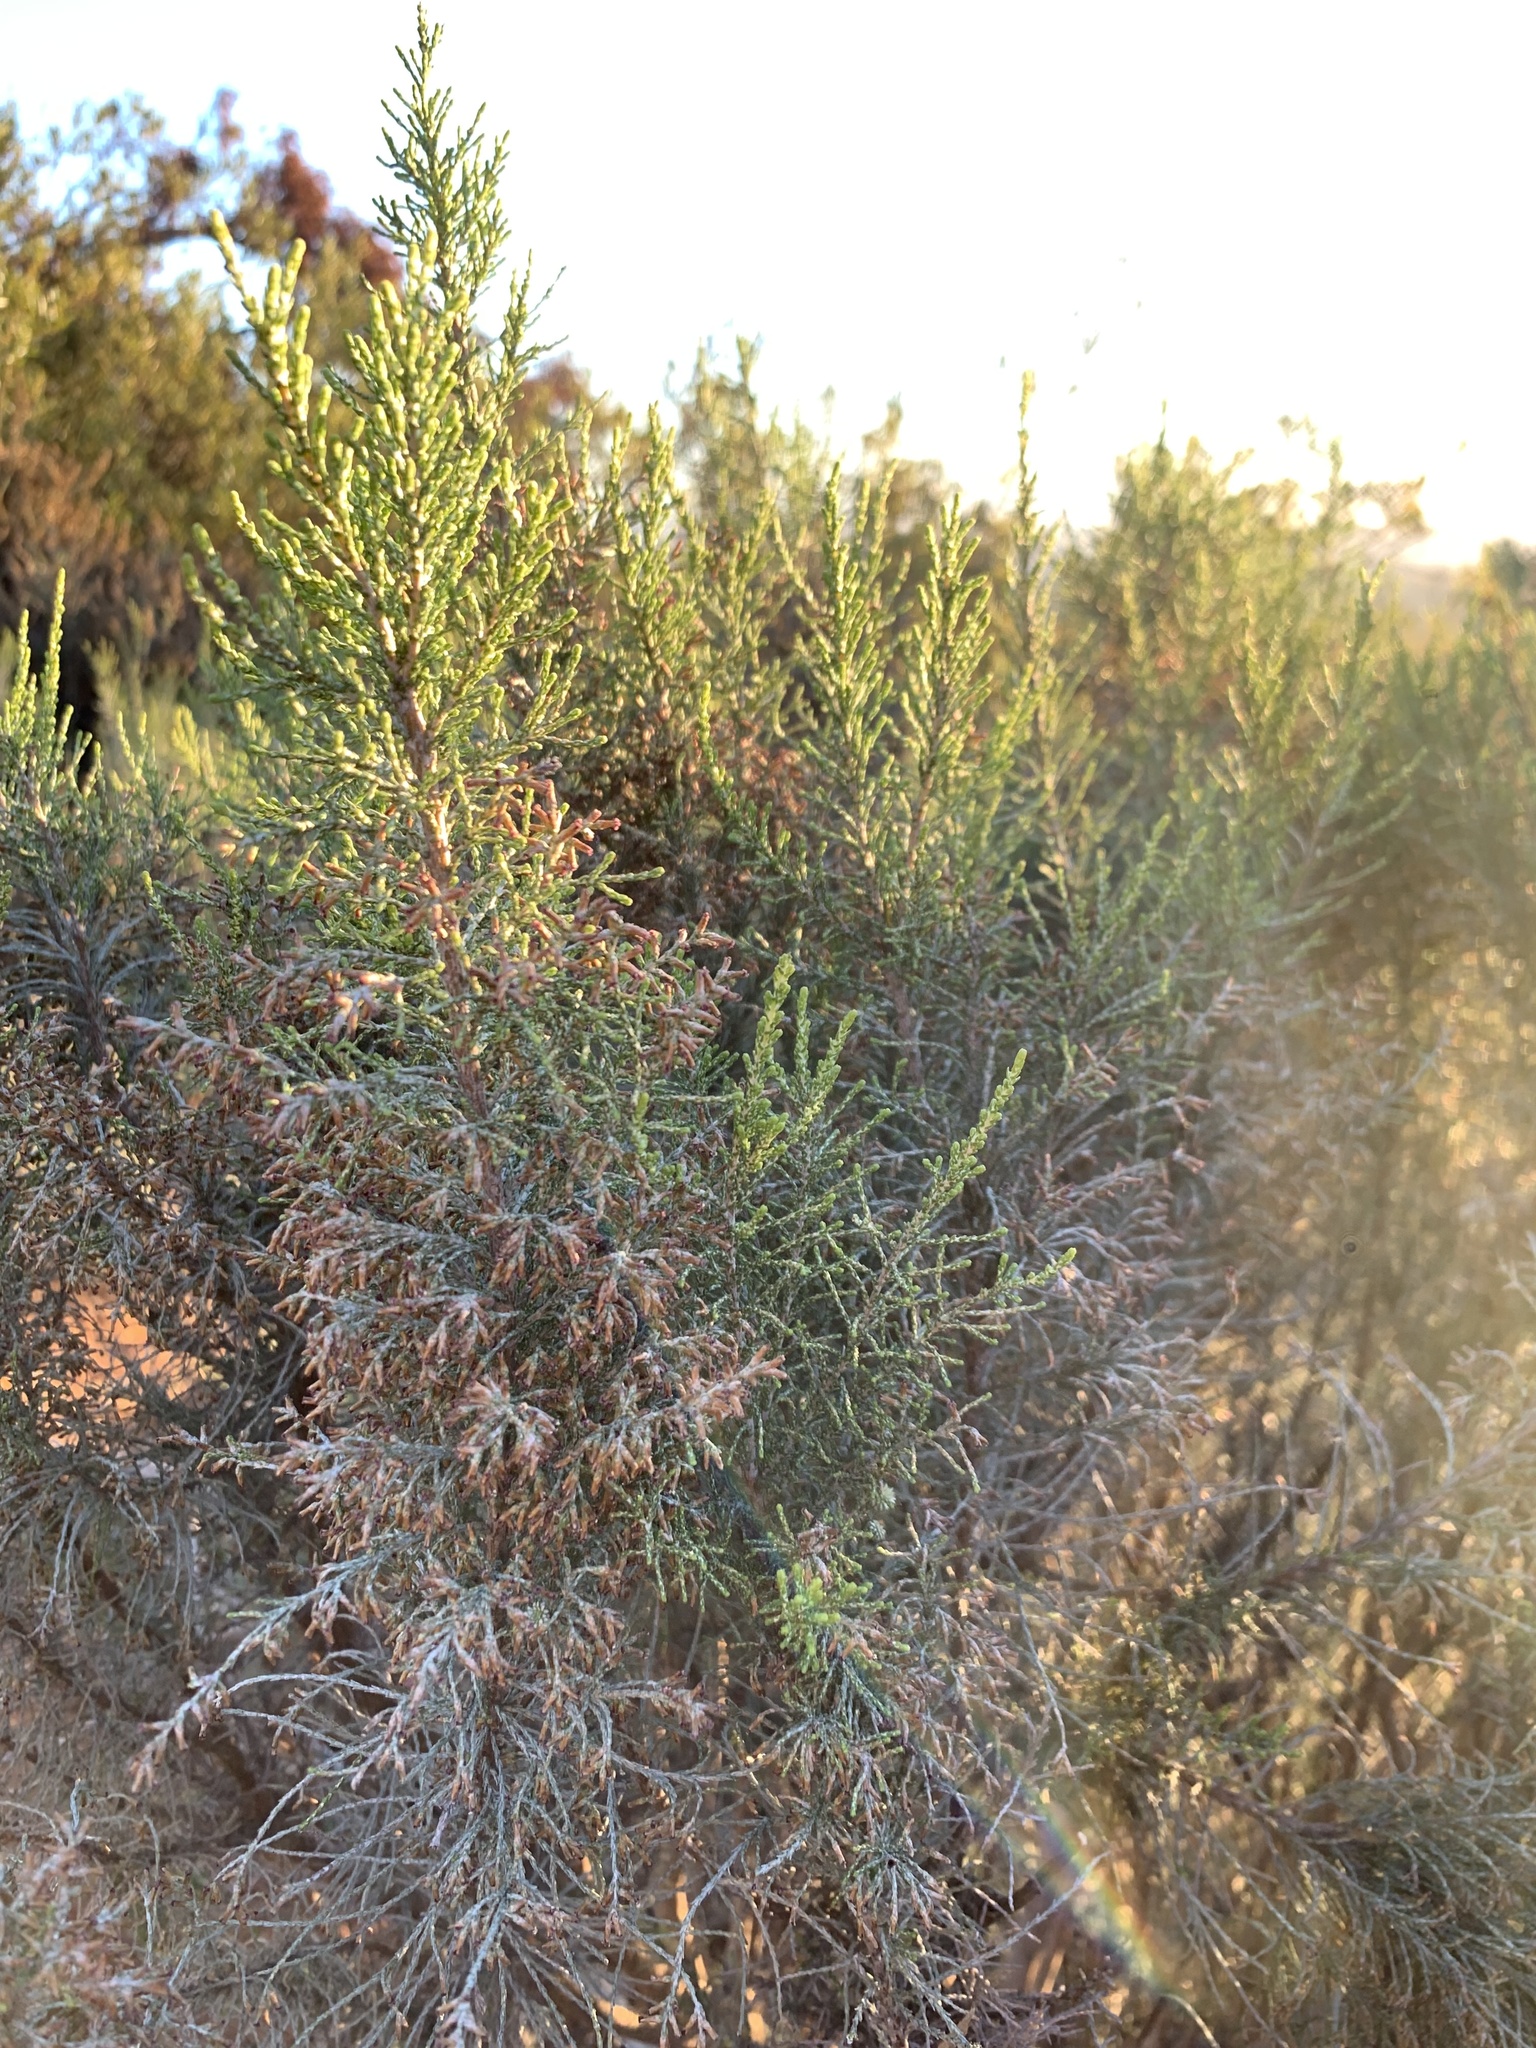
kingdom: Plantae
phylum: Tracheophyta
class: Magnoliopsida
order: Asterales
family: Asteraceae
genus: Dicerothamnus
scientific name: Dicerothamnus rhinocerotis
